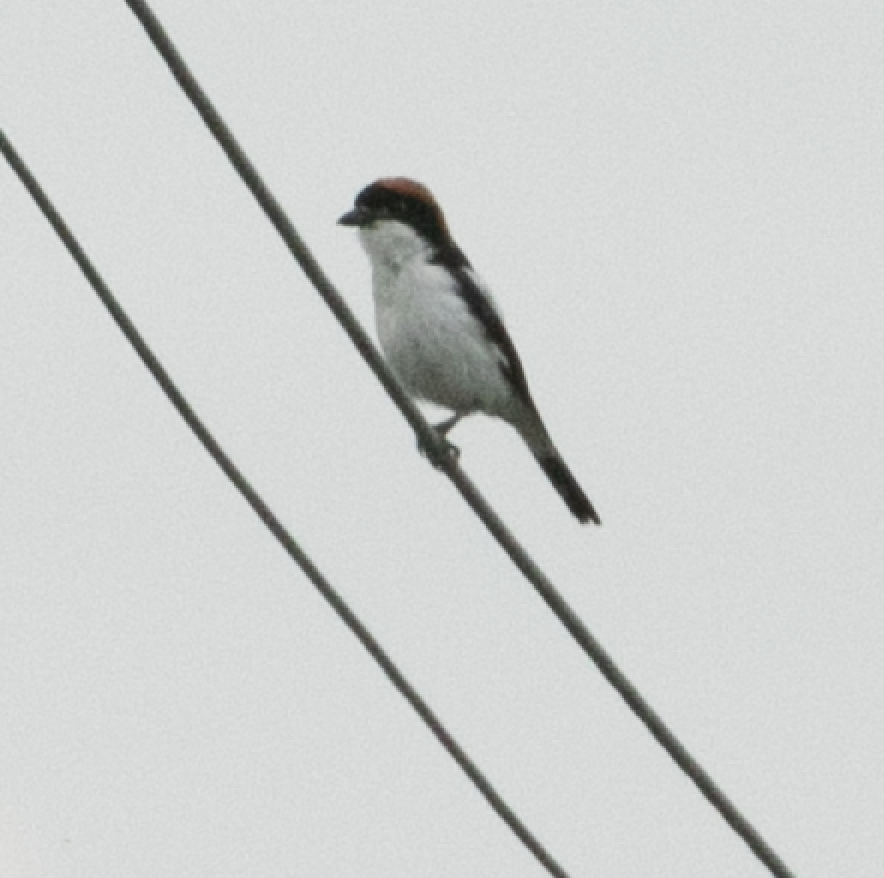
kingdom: Animalia
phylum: Chordata
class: Aves
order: Passeriformes
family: Laniidae
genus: Lanius
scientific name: Lanius senator
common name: Woodchat shrike
